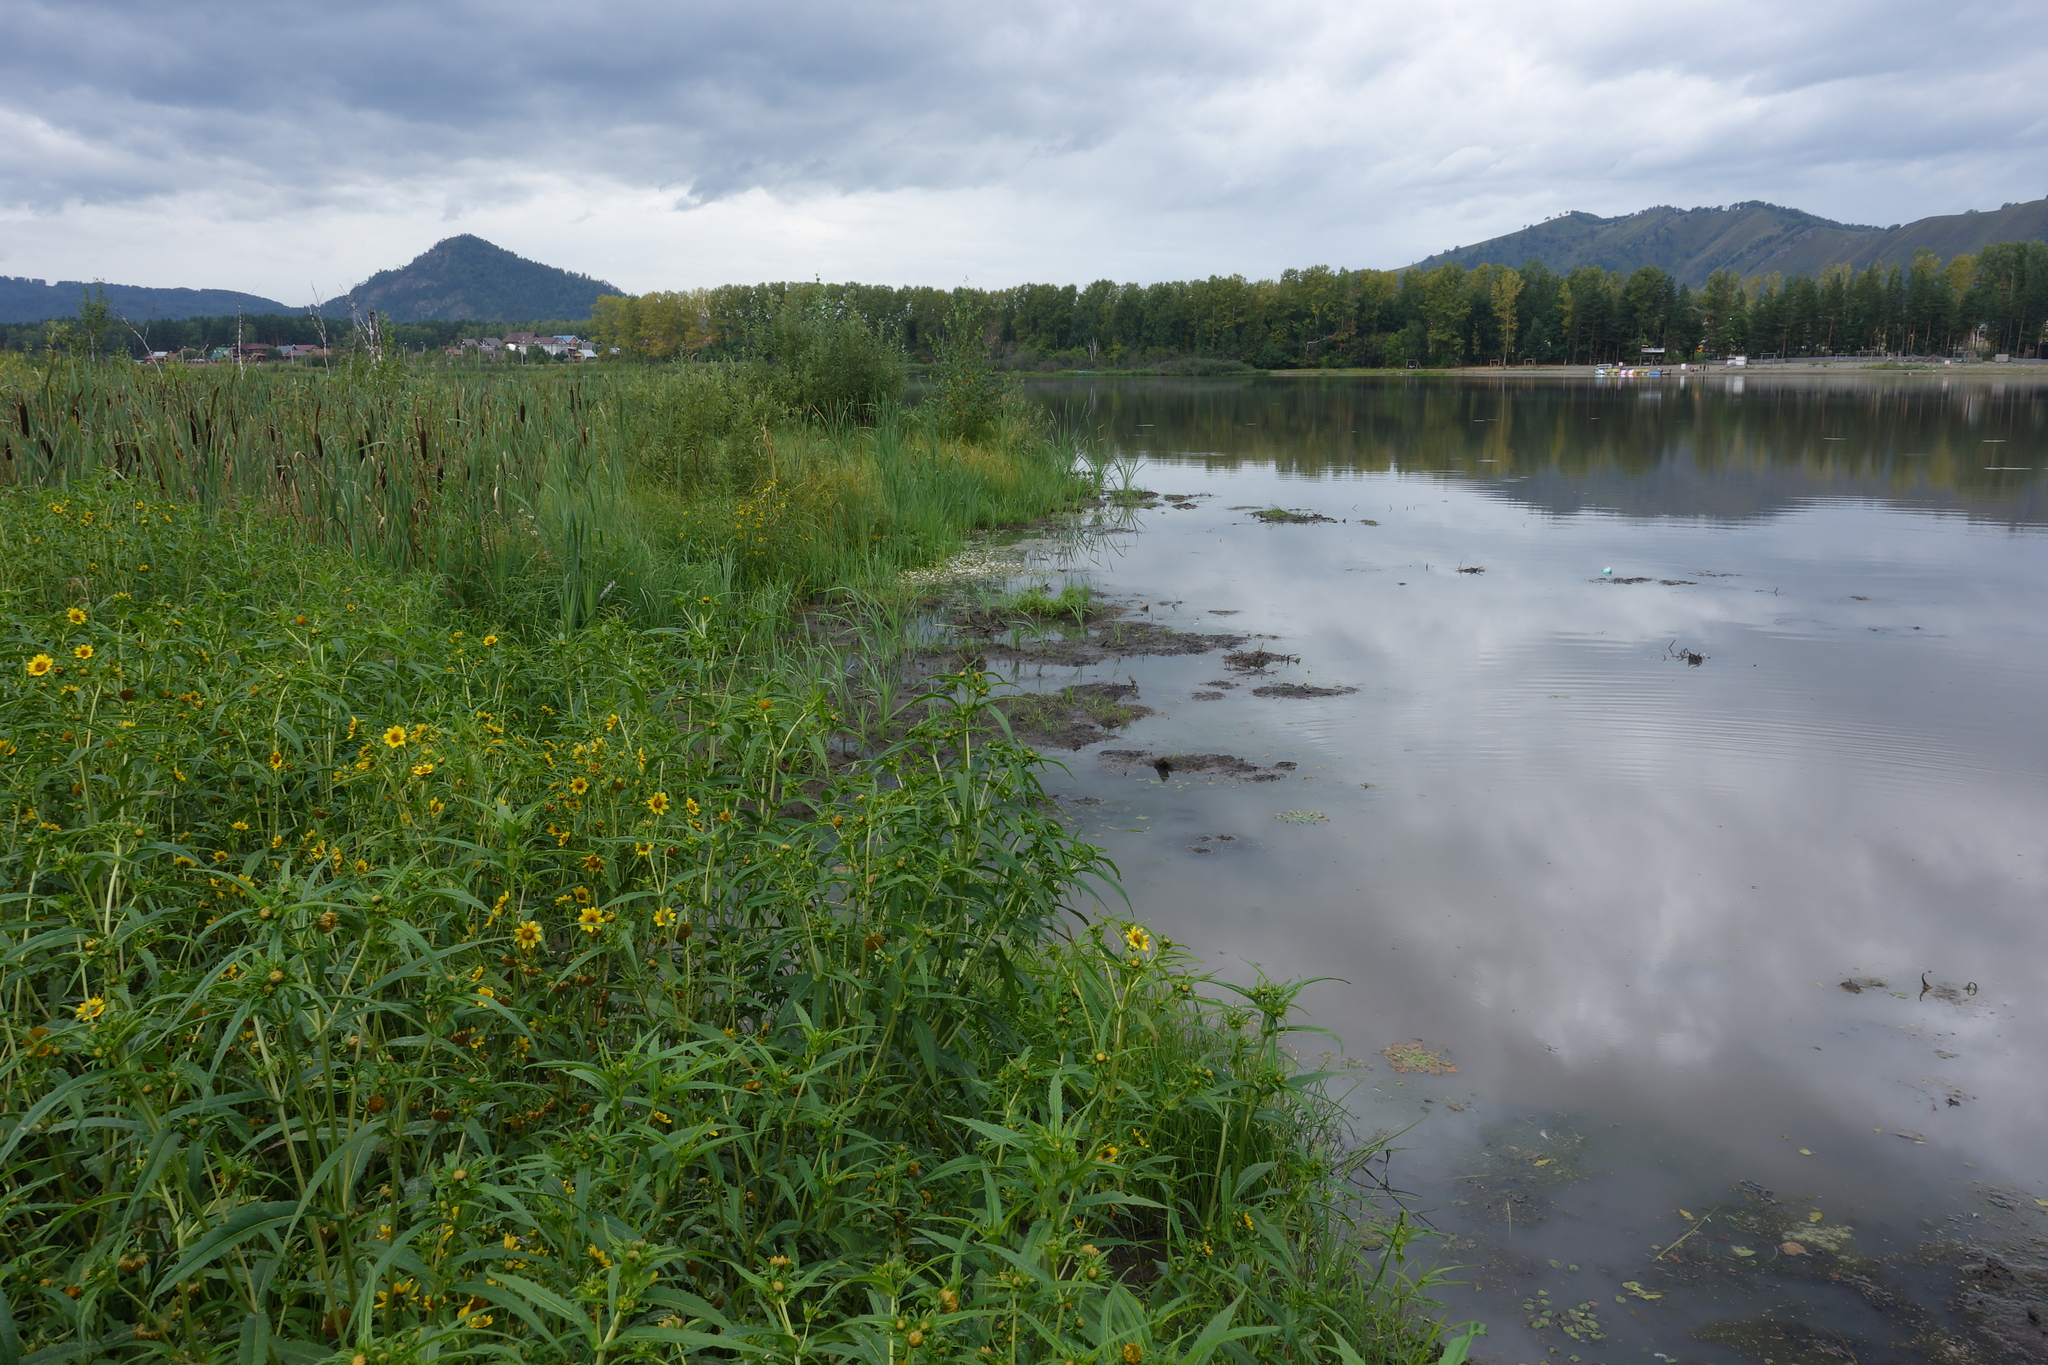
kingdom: Plantae
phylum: Tracheophyta
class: Magnoliopsida
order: Asterales
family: Asteraceae
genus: Bidens
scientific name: Bidens cernua
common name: Nodding bur-marigold
